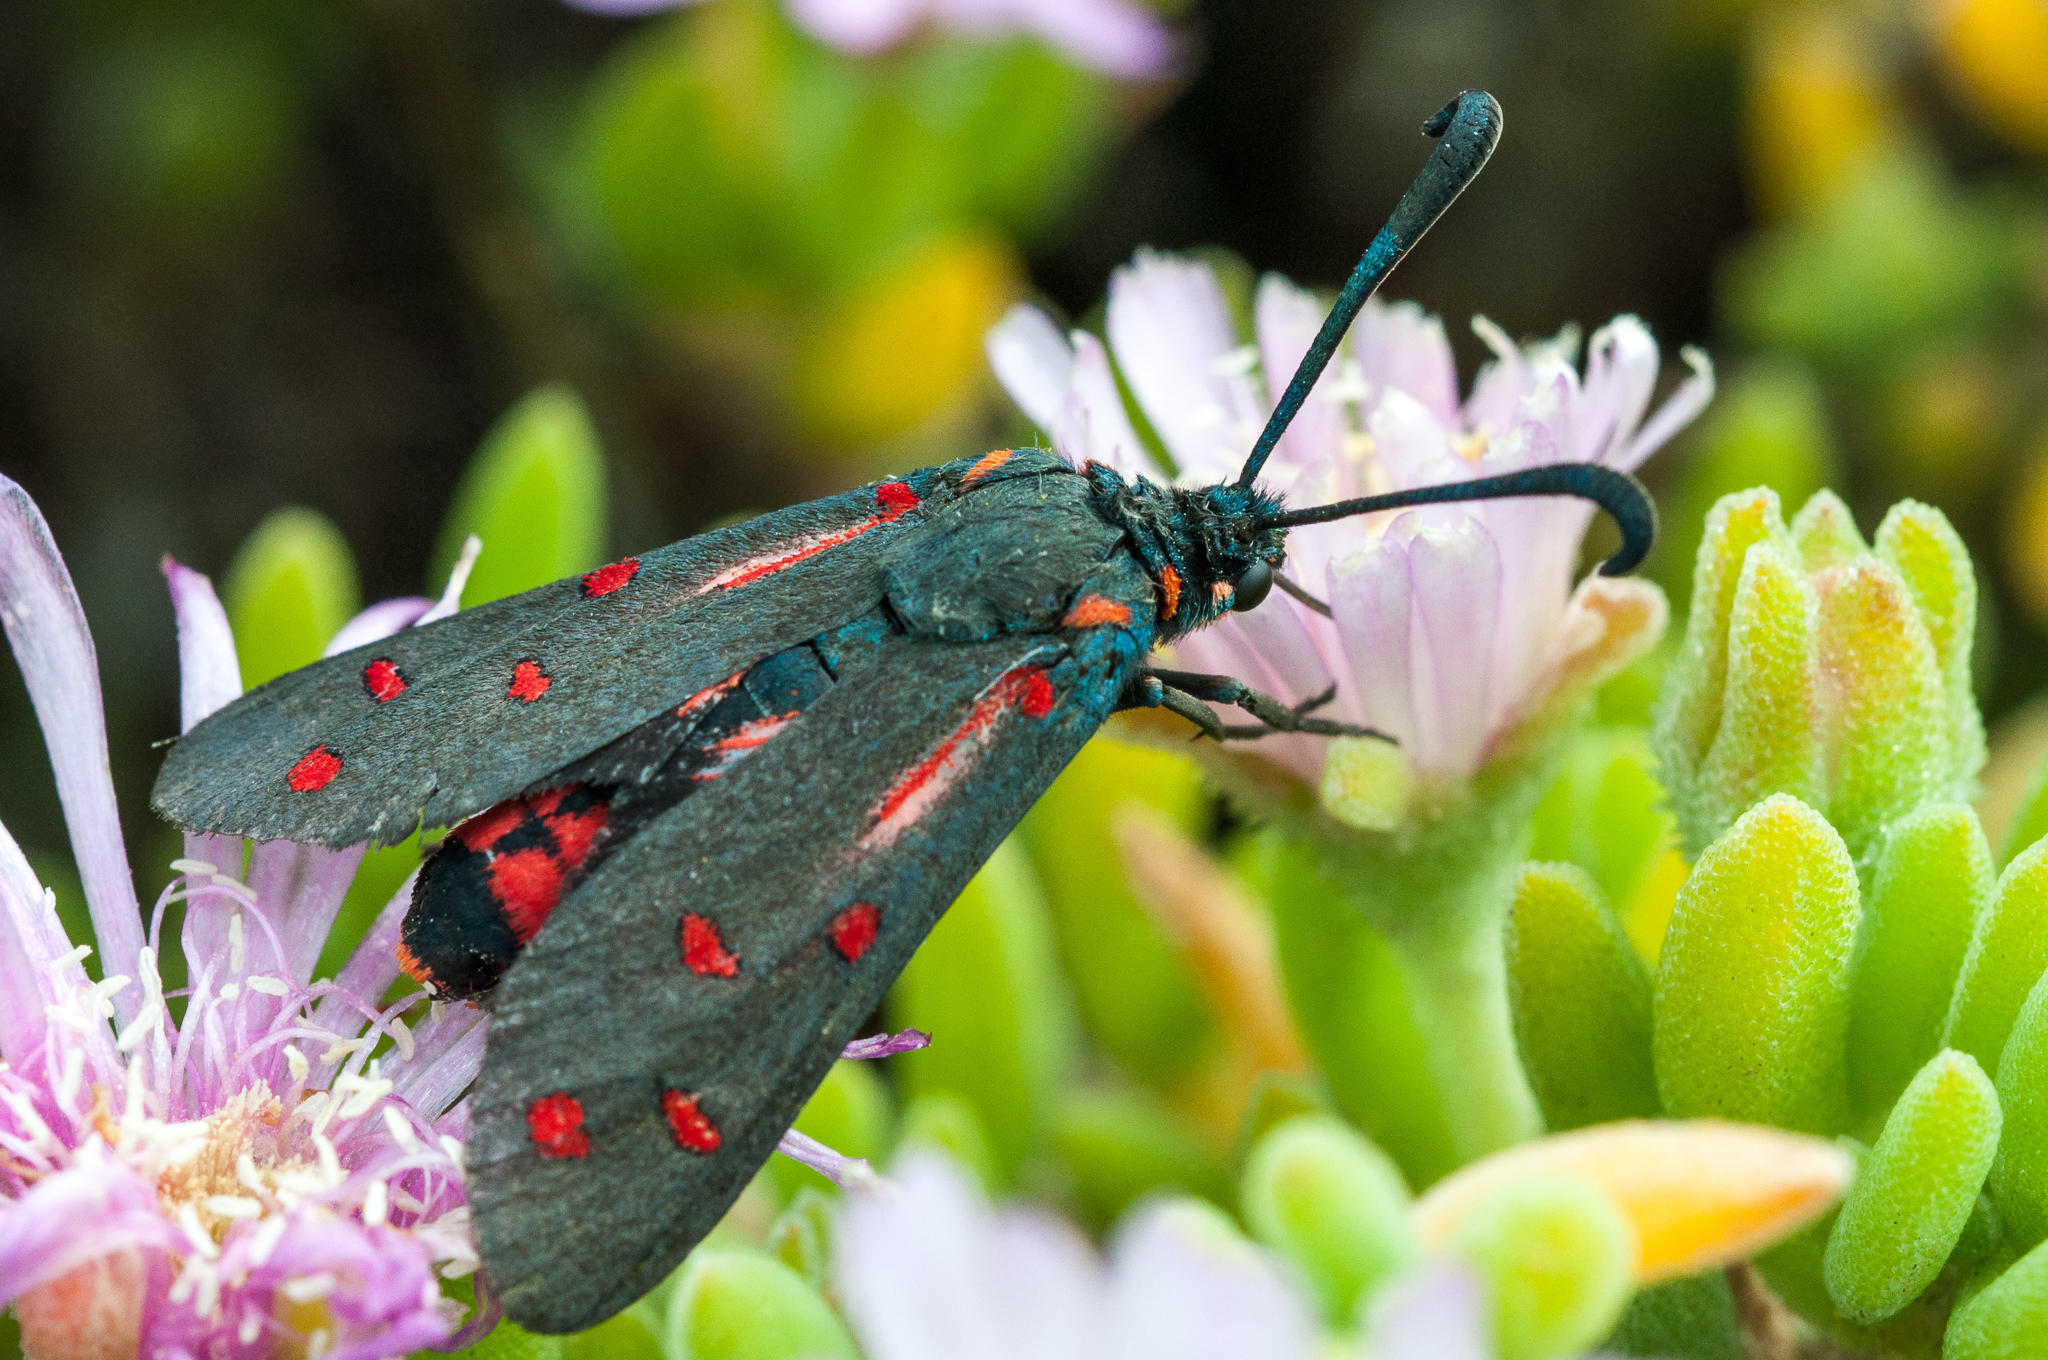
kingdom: Animalia
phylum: Arthropoda
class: Insecta
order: Lepidoptera
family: Zygaenidae
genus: Neurosymploca
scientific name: Neurosymploca naumanniola
